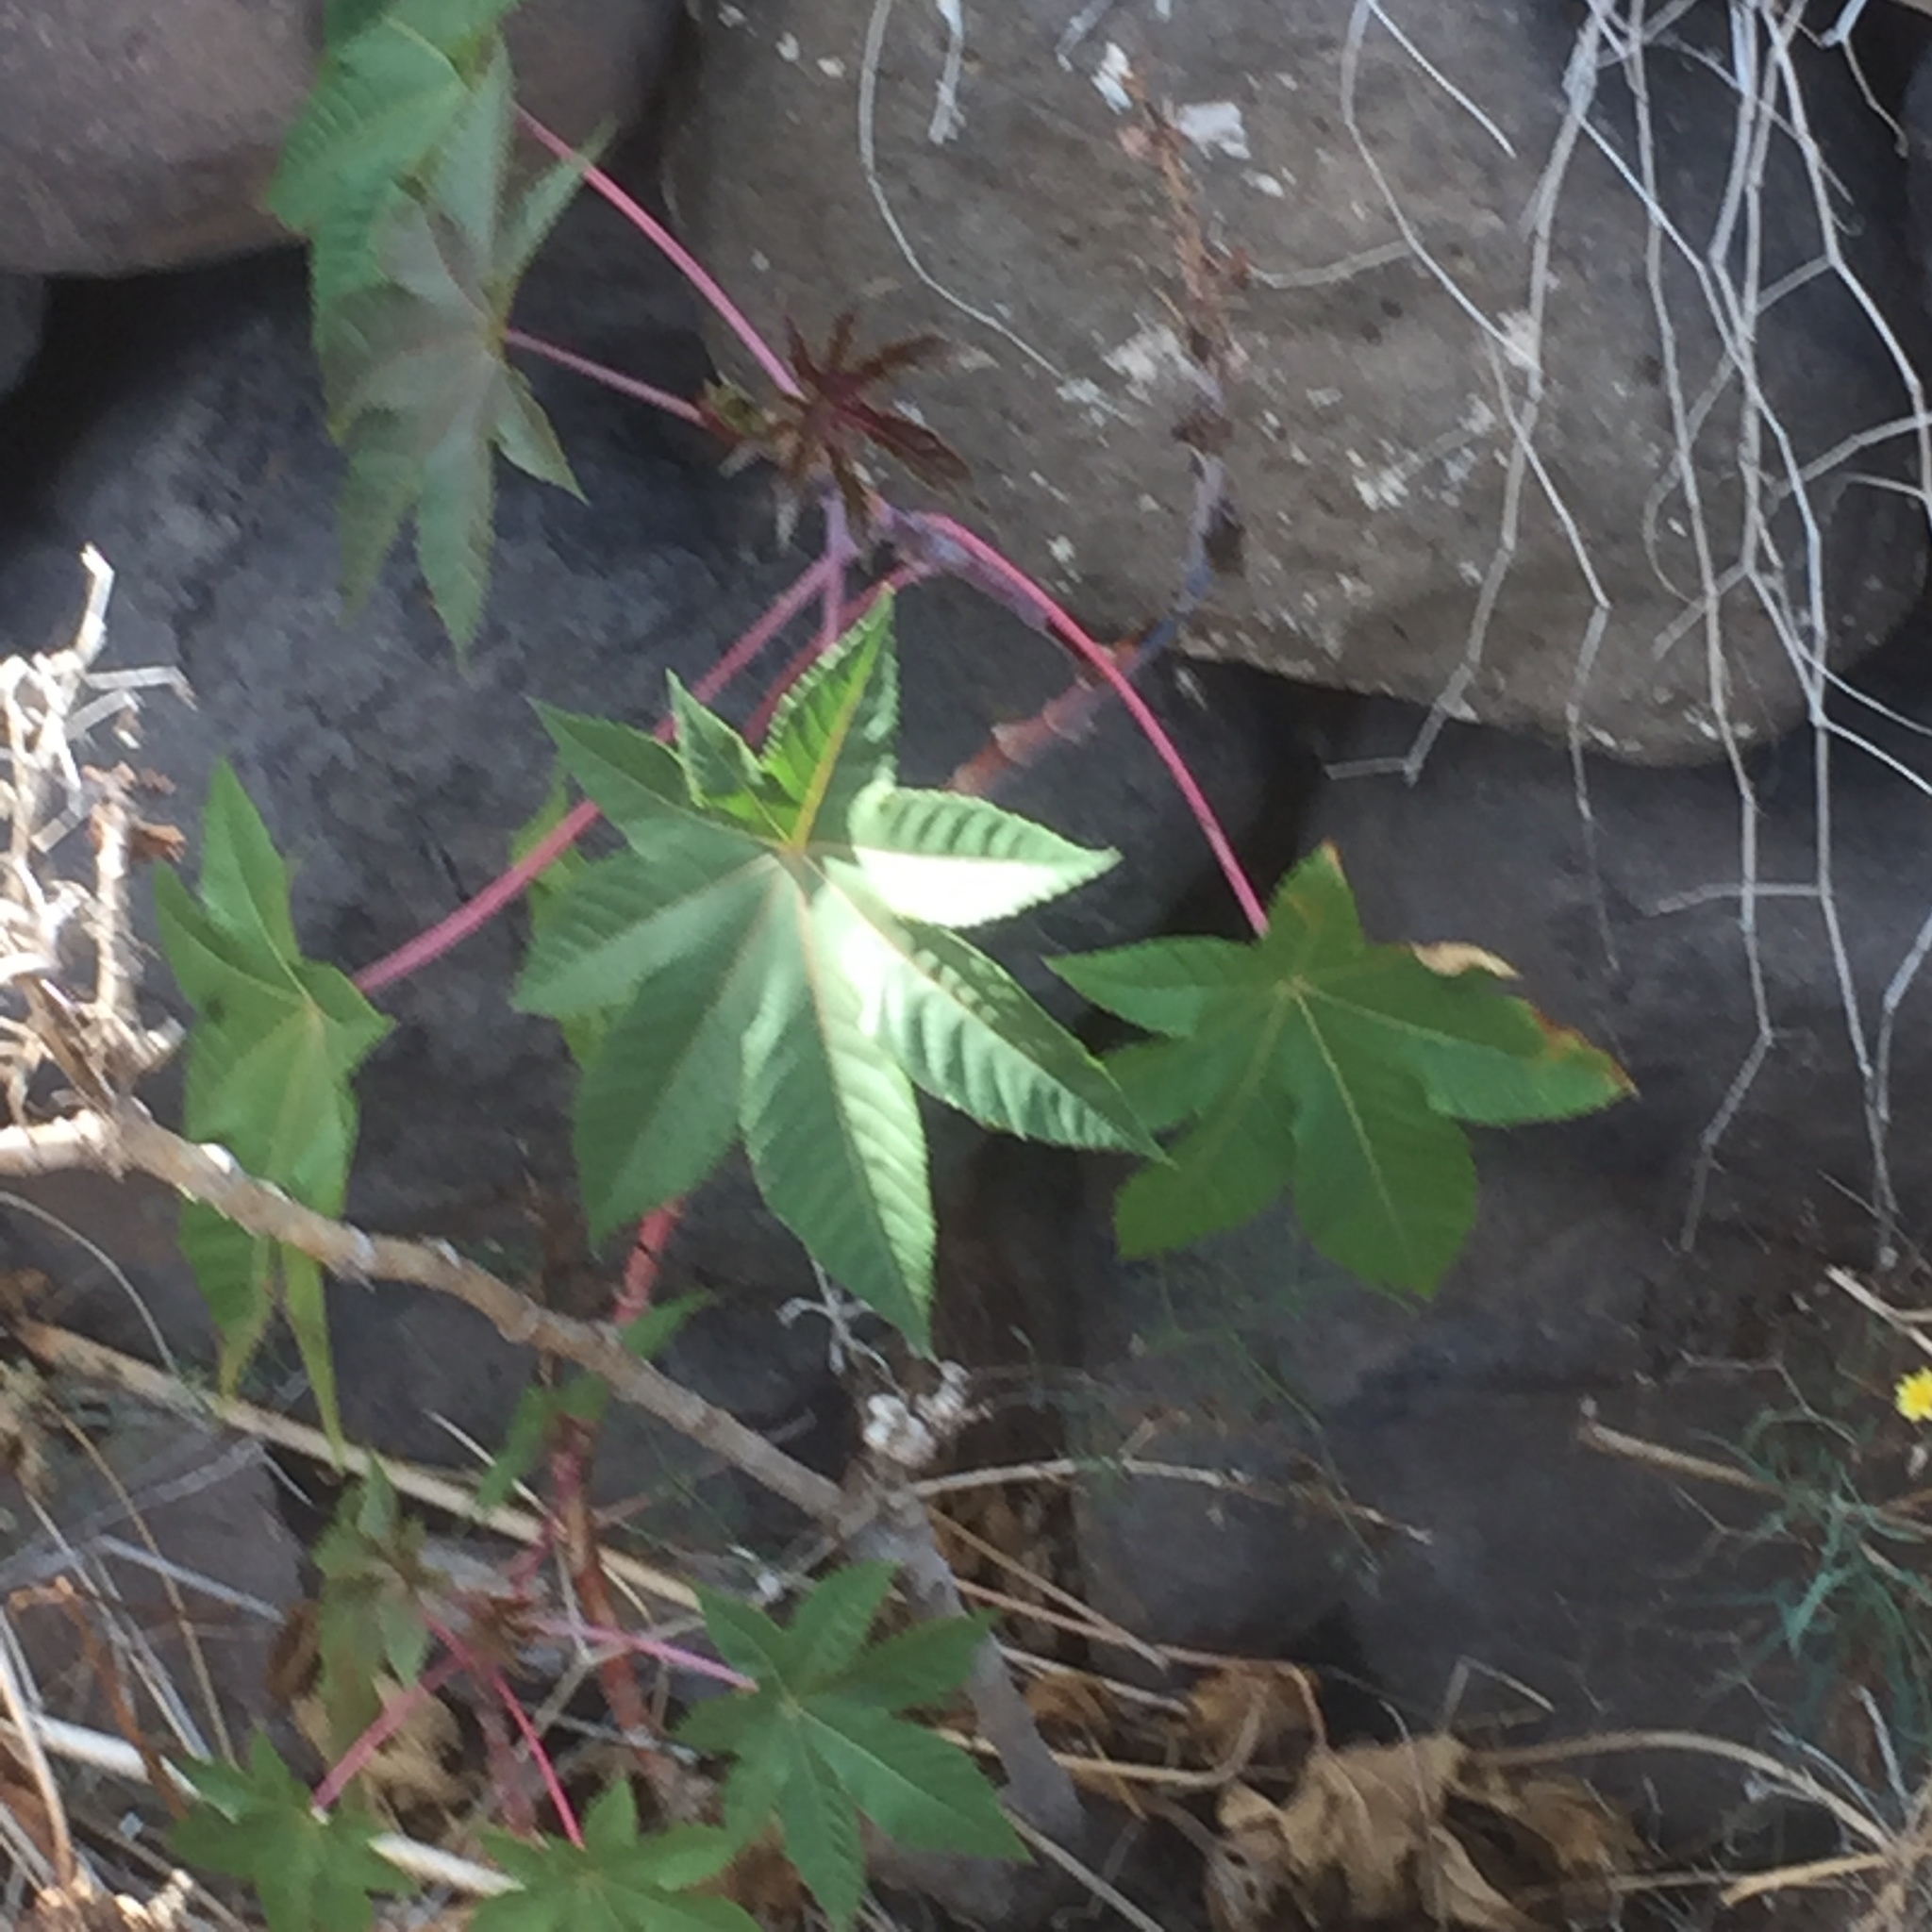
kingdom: Plantae
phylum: Tracheophyta
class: Magnoliopsida
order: Malpighiales
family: Euphorbiaceae
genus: Ricinus
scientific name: Ricinus communis
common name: Castor-oil-plant
